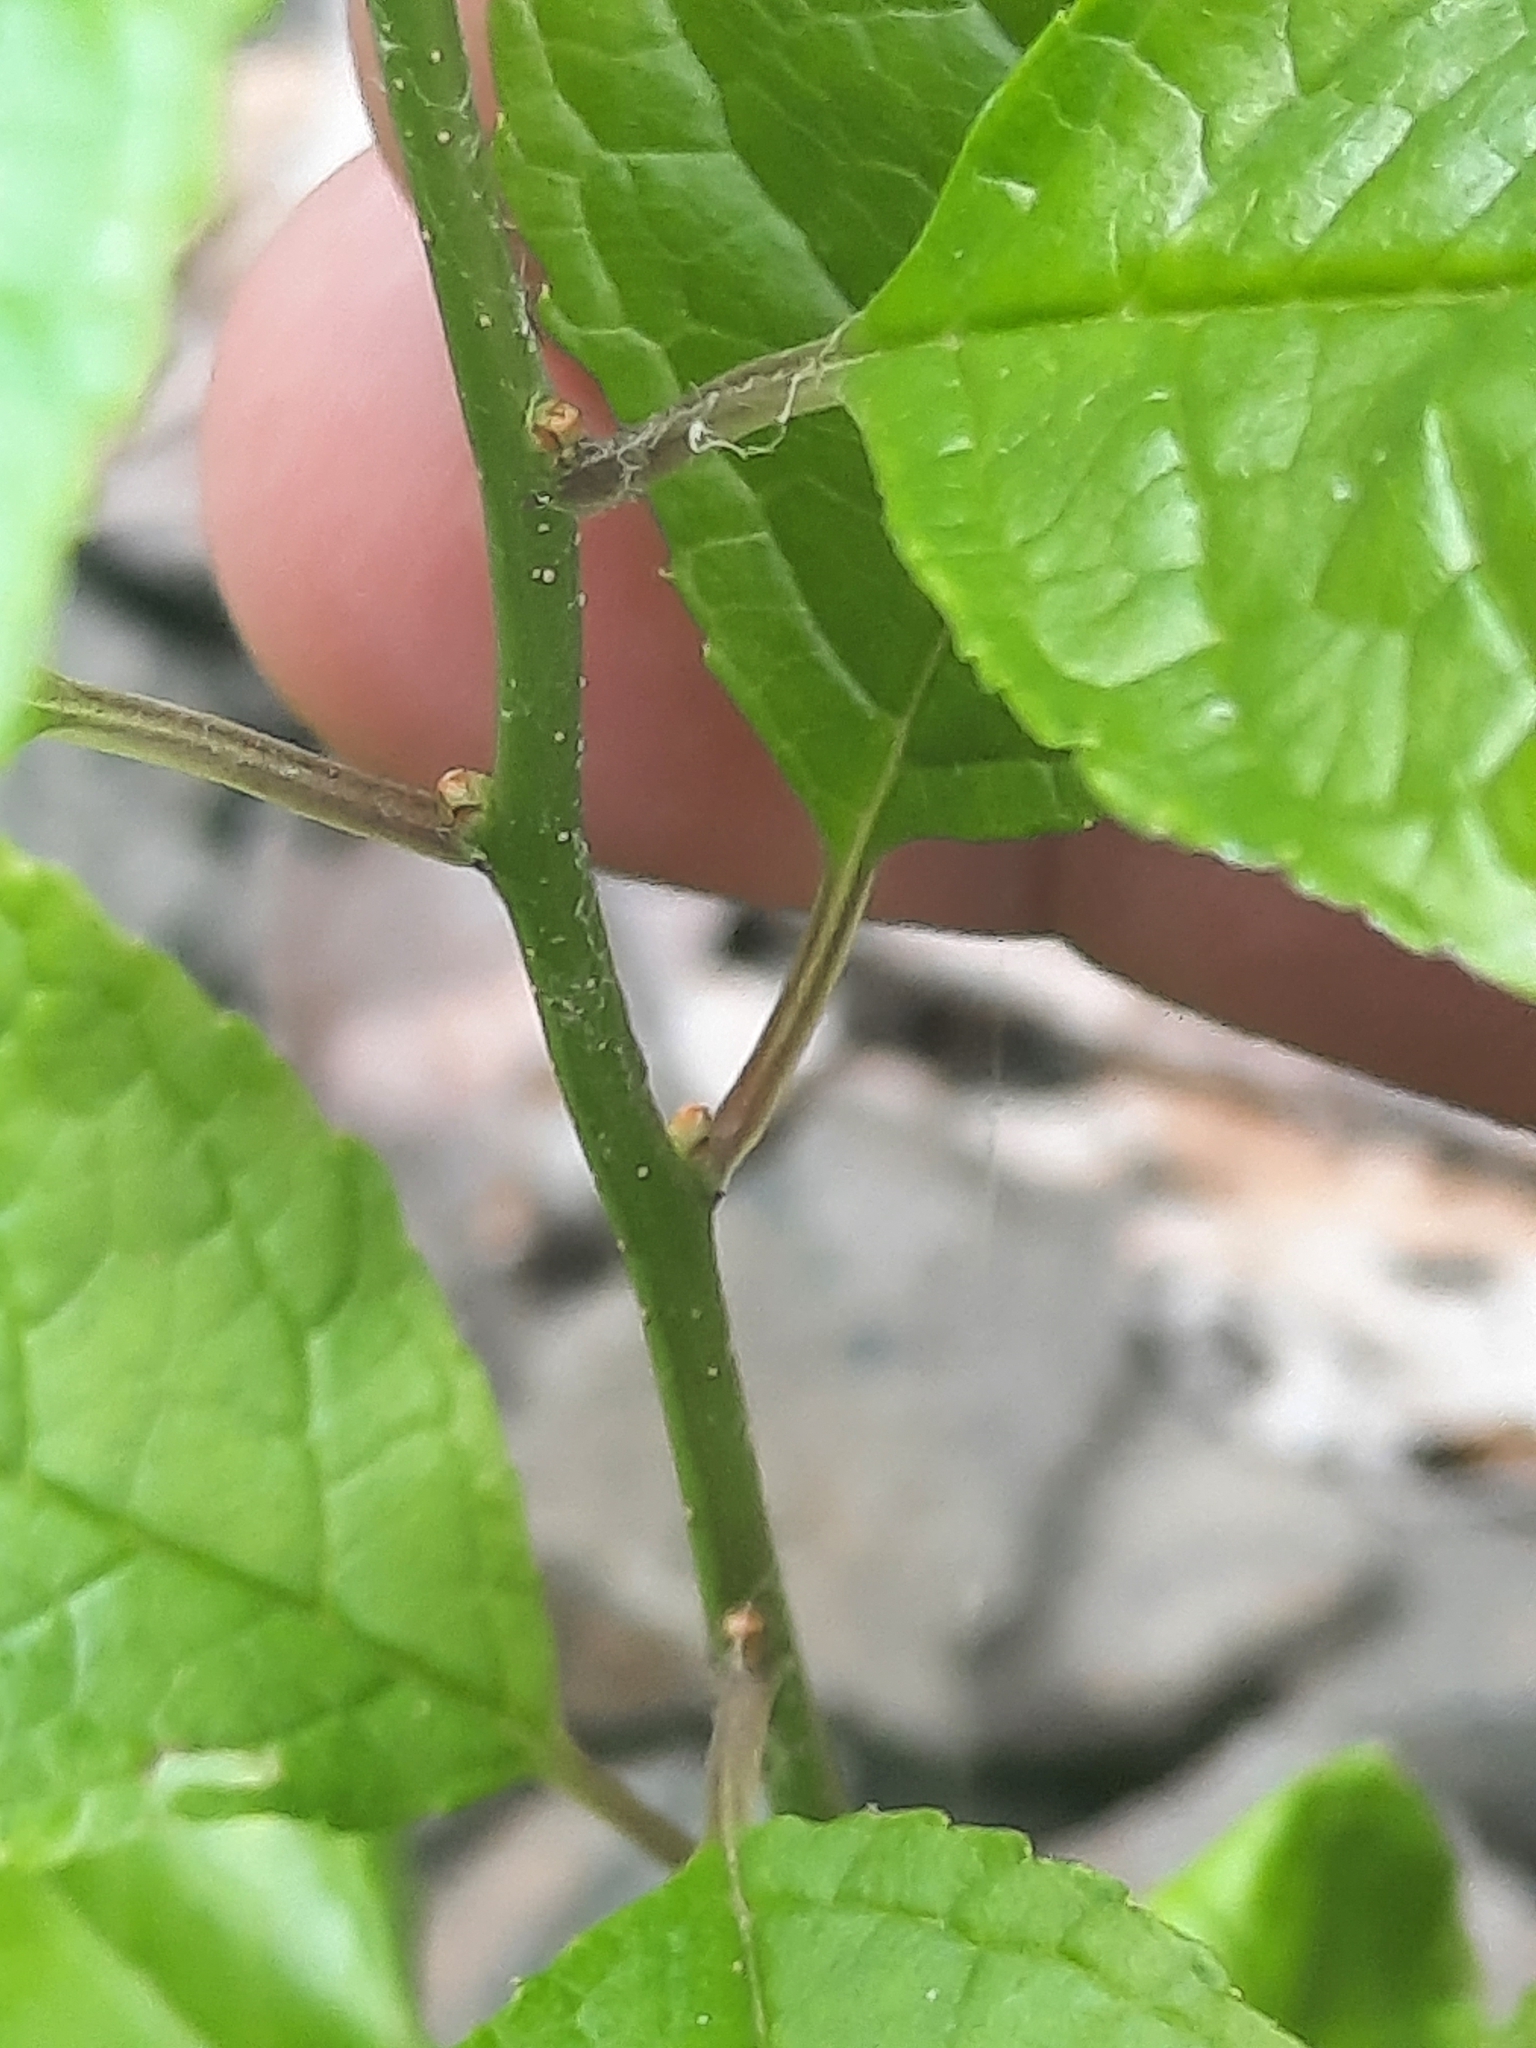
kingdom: Plantae
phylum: Tracheophyta
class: Magnoliopsida
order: Aquifoliales
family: Aquifoliaceae
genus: Ilex
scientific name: Ilex verticillata
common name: Virginia winterberry
